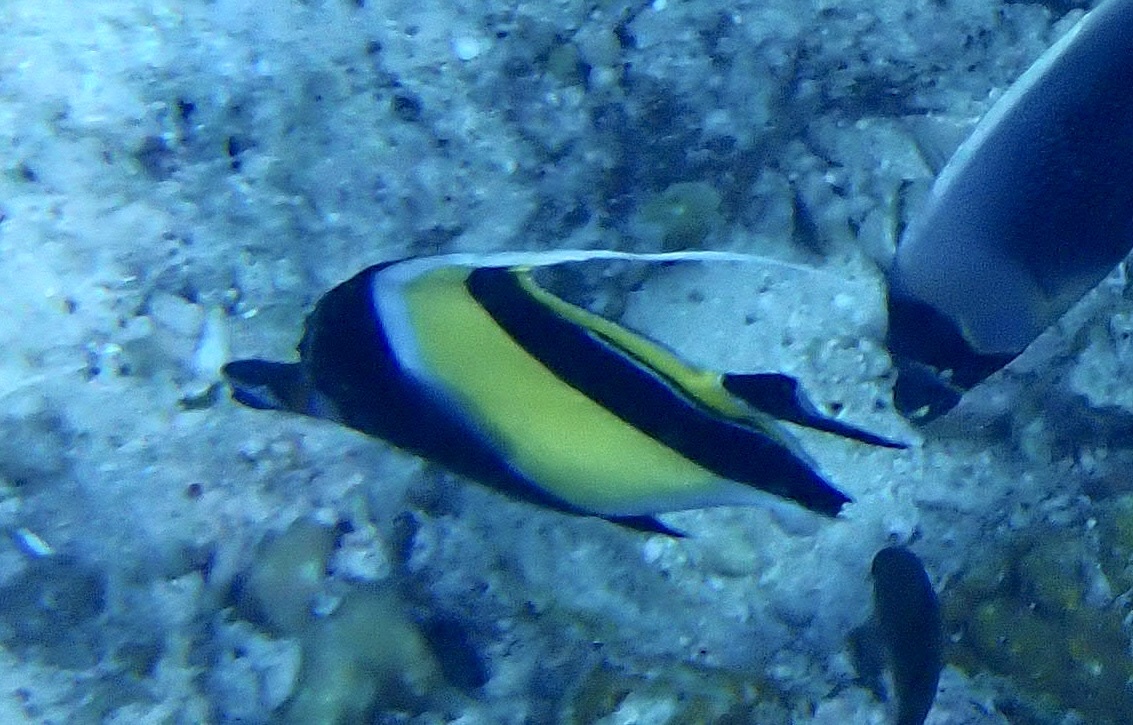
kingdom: Animalia
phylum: Chordata
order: Perciformes
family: Zanclidae
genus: Zanclus
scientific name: Zanclus cornutus
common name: Moorish idol
